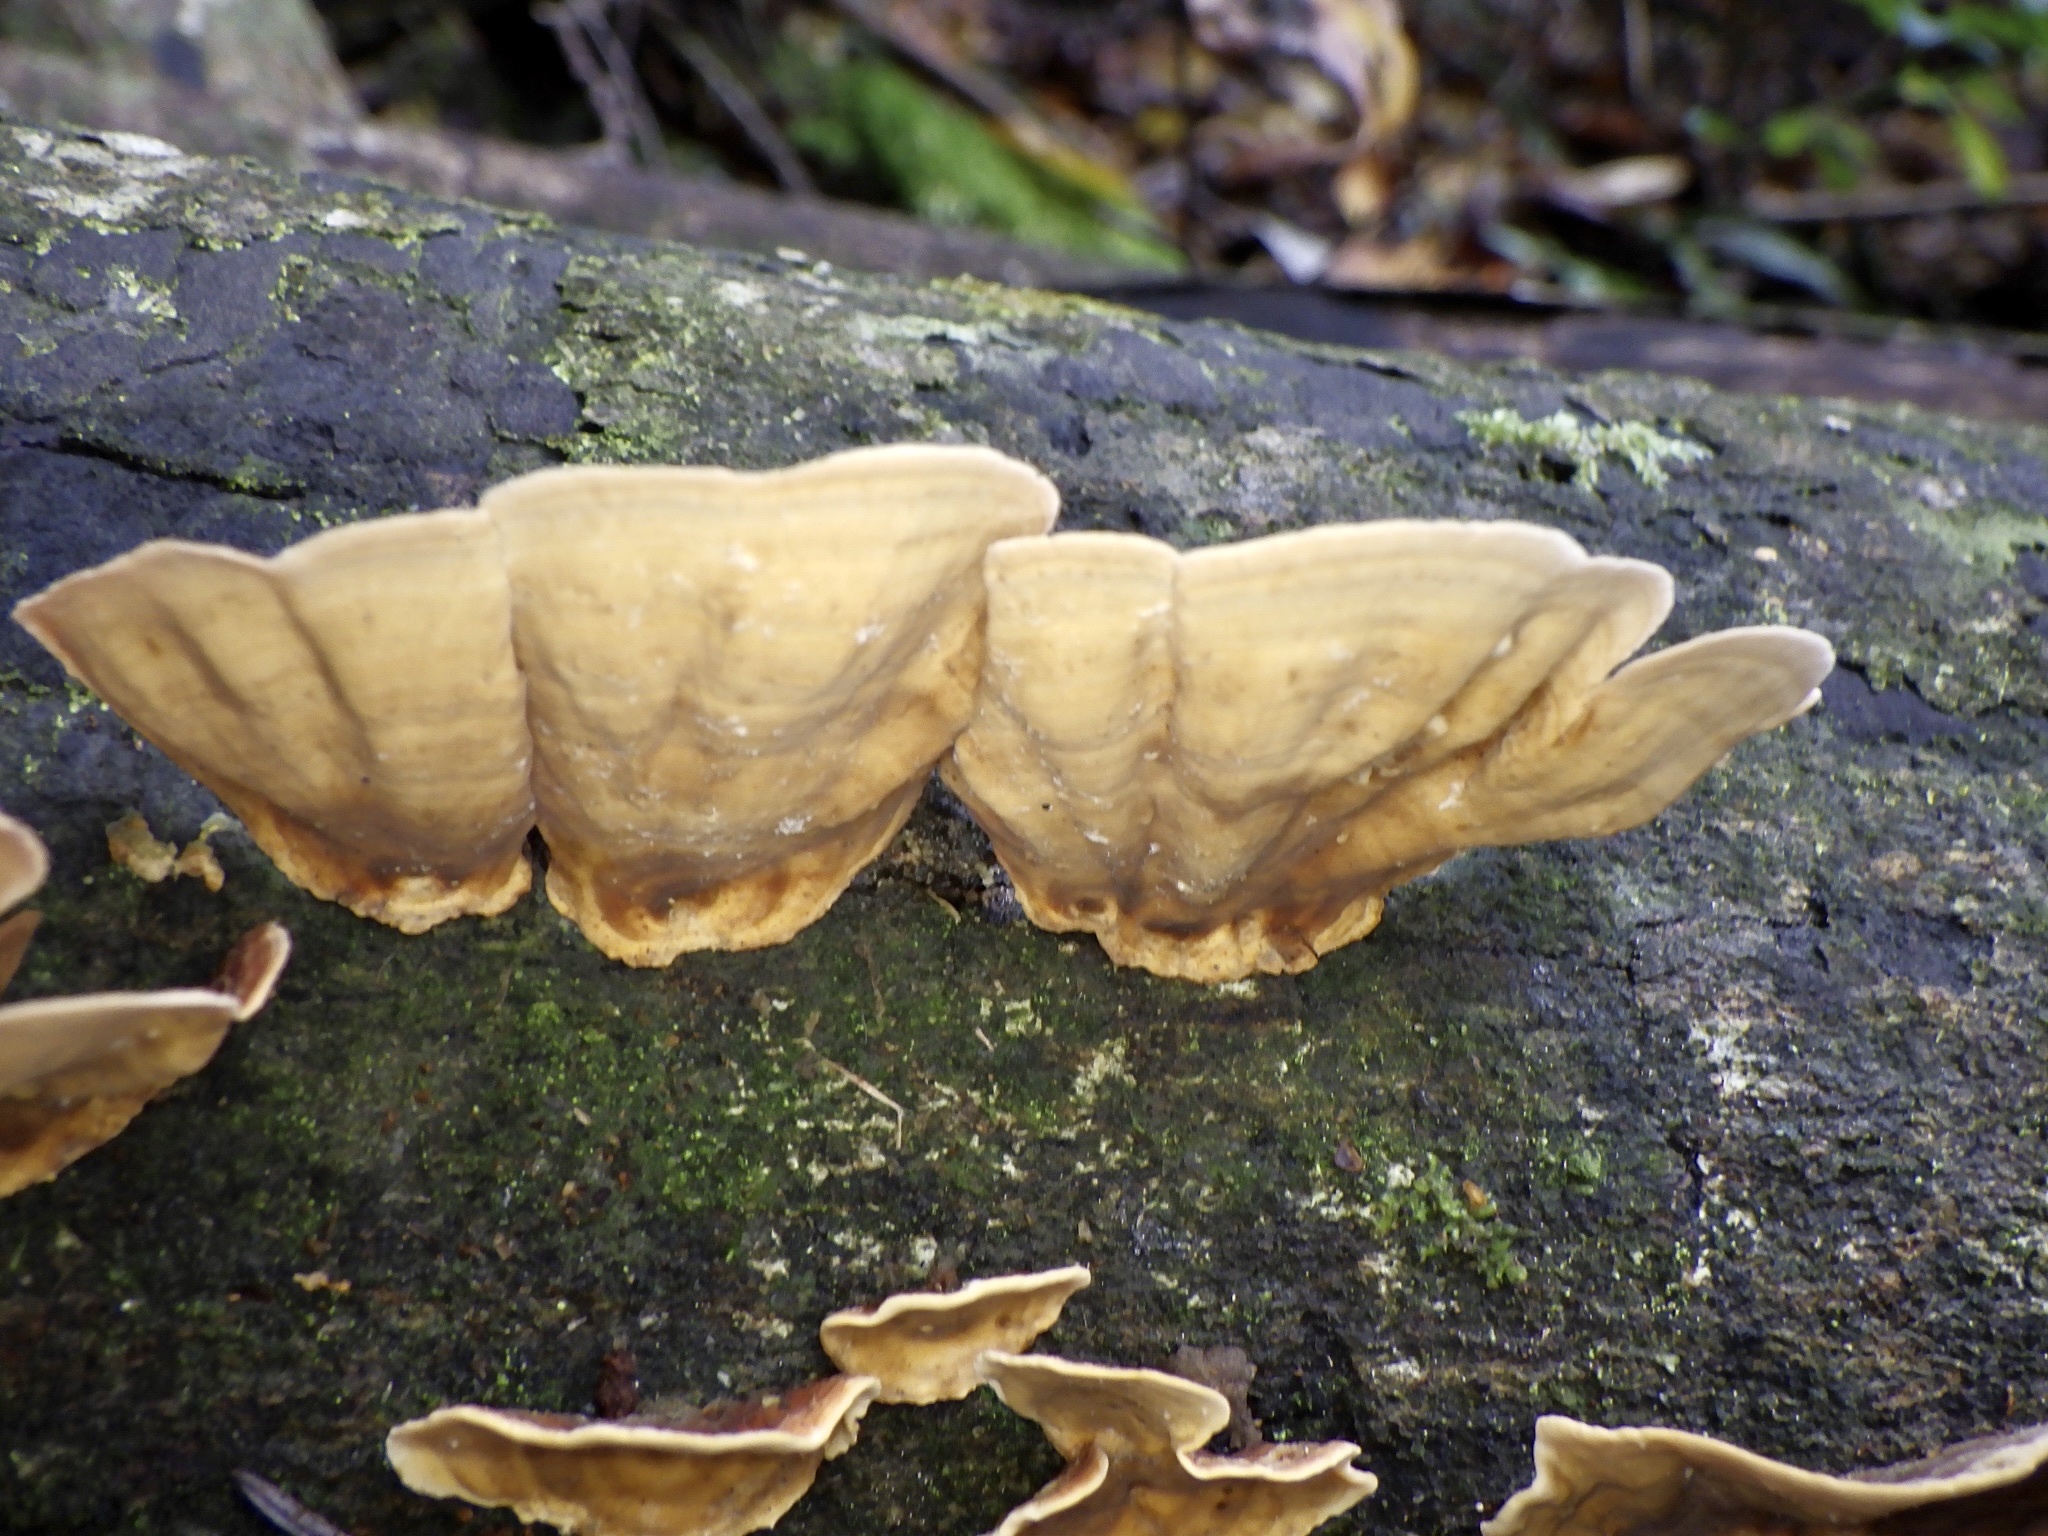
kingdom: Fungi
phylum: Basidiomycota
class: Agaricomycetes
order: Russulales
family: Stereaceae
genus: Stereum
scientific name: Stereum ostrea
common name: False turkeytail
